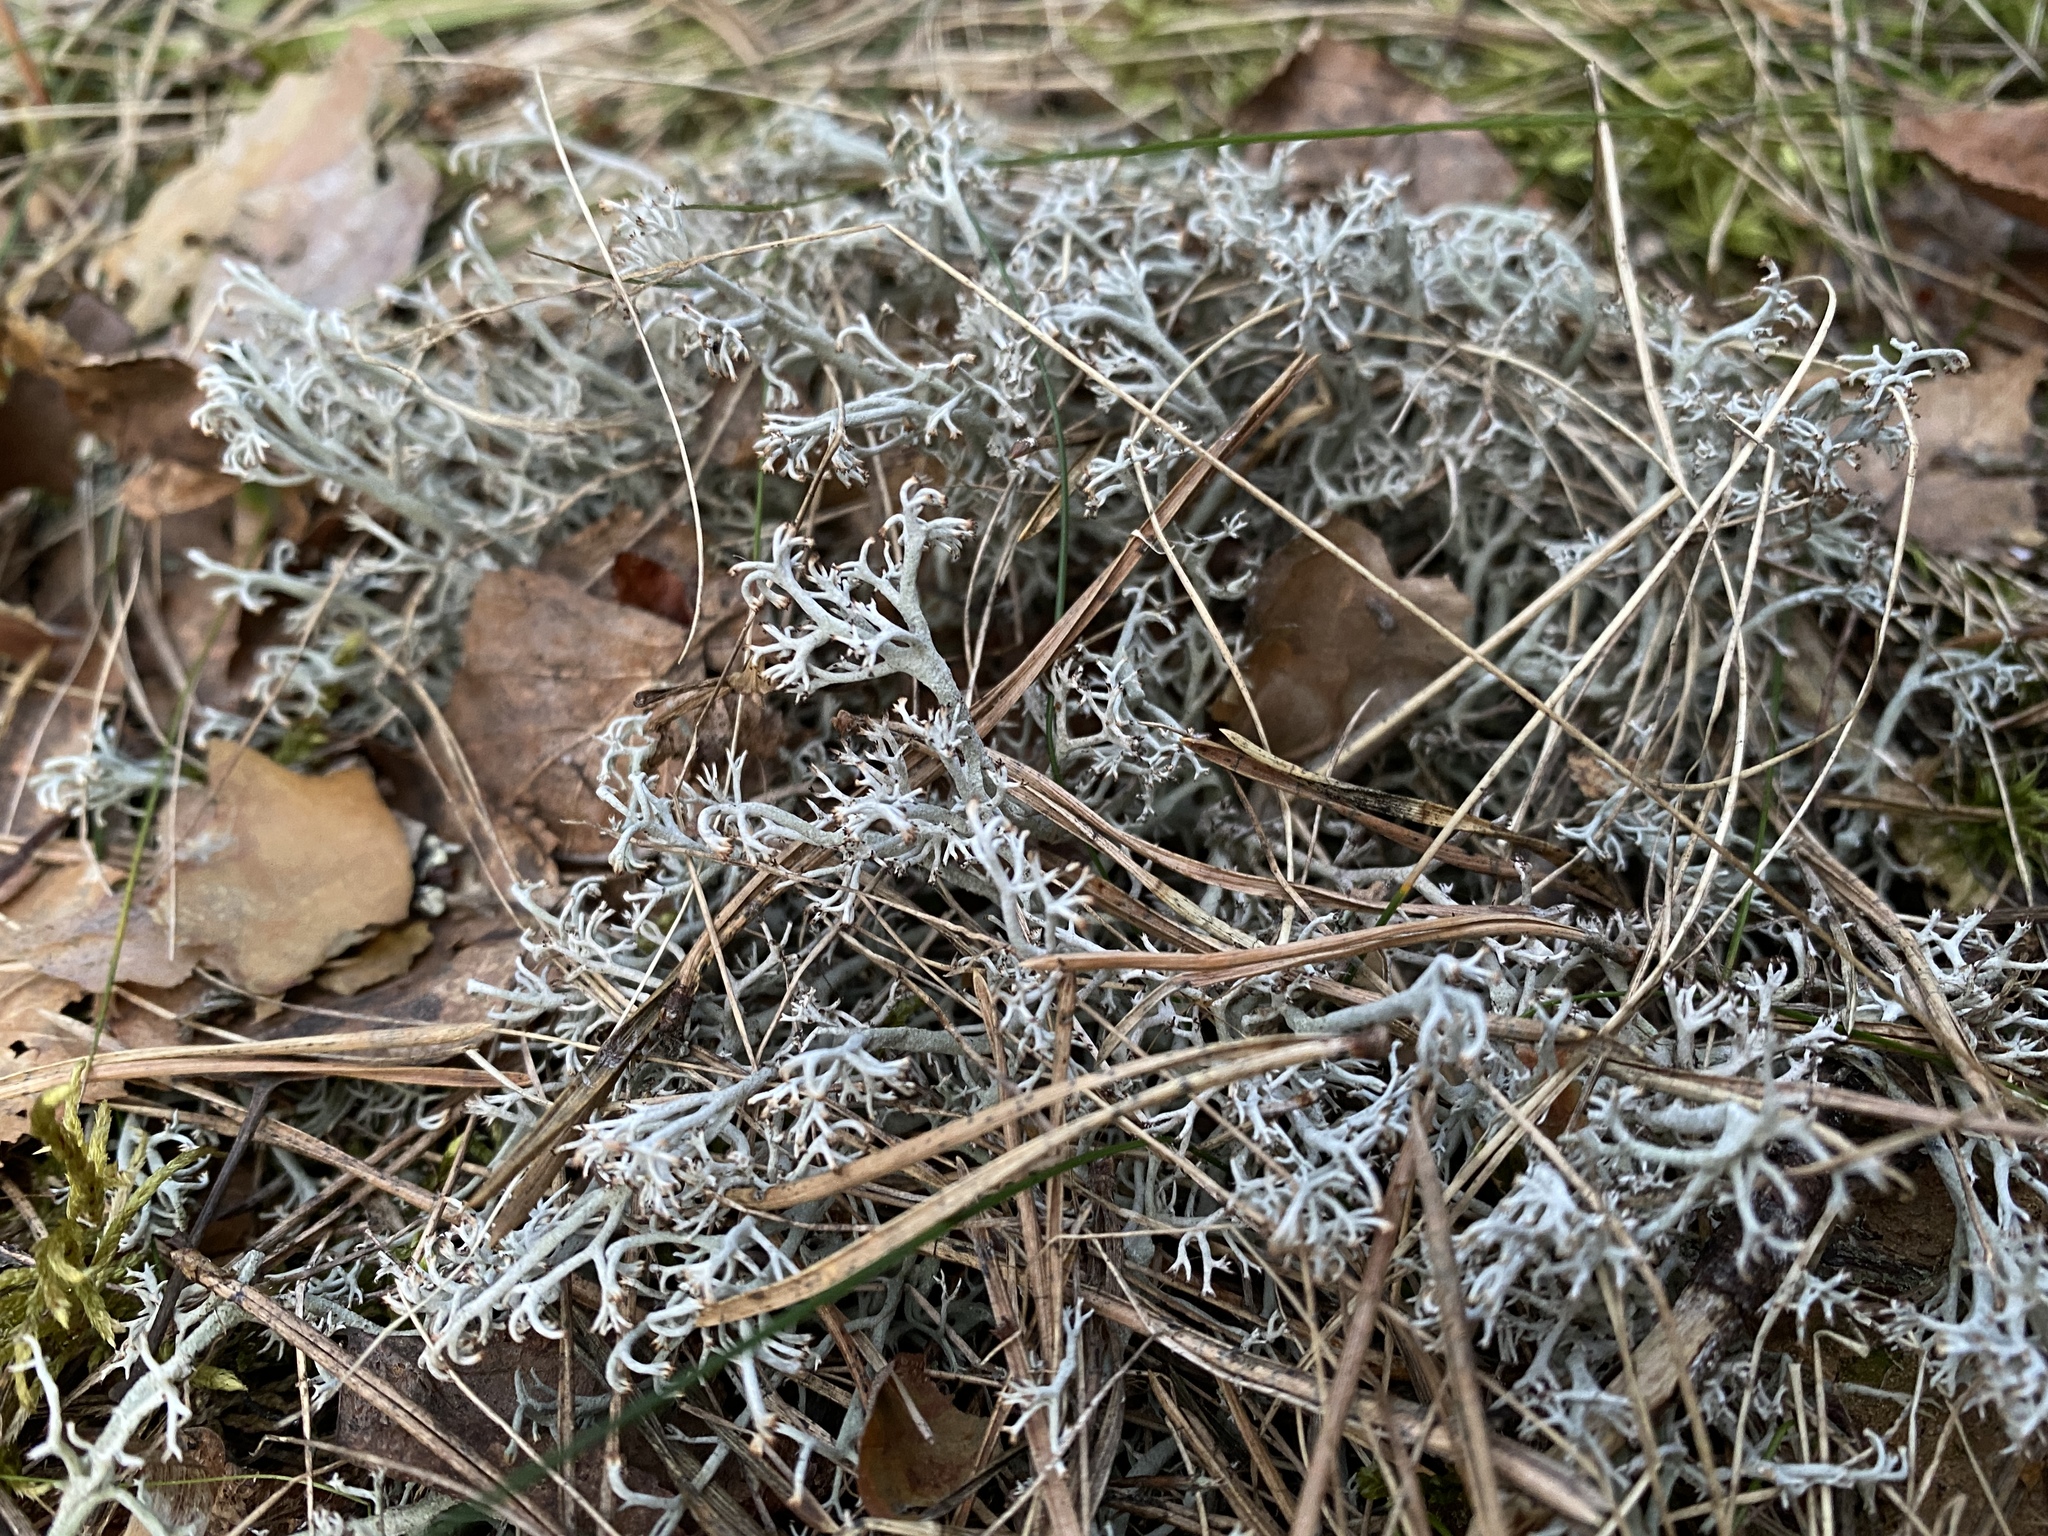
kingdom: Fungi
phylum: Ascomycota
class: Lecanoromycetes
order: Lecanorales
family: Cladoniaceae
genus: Cladonia
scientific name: Cladonia rangiferina
